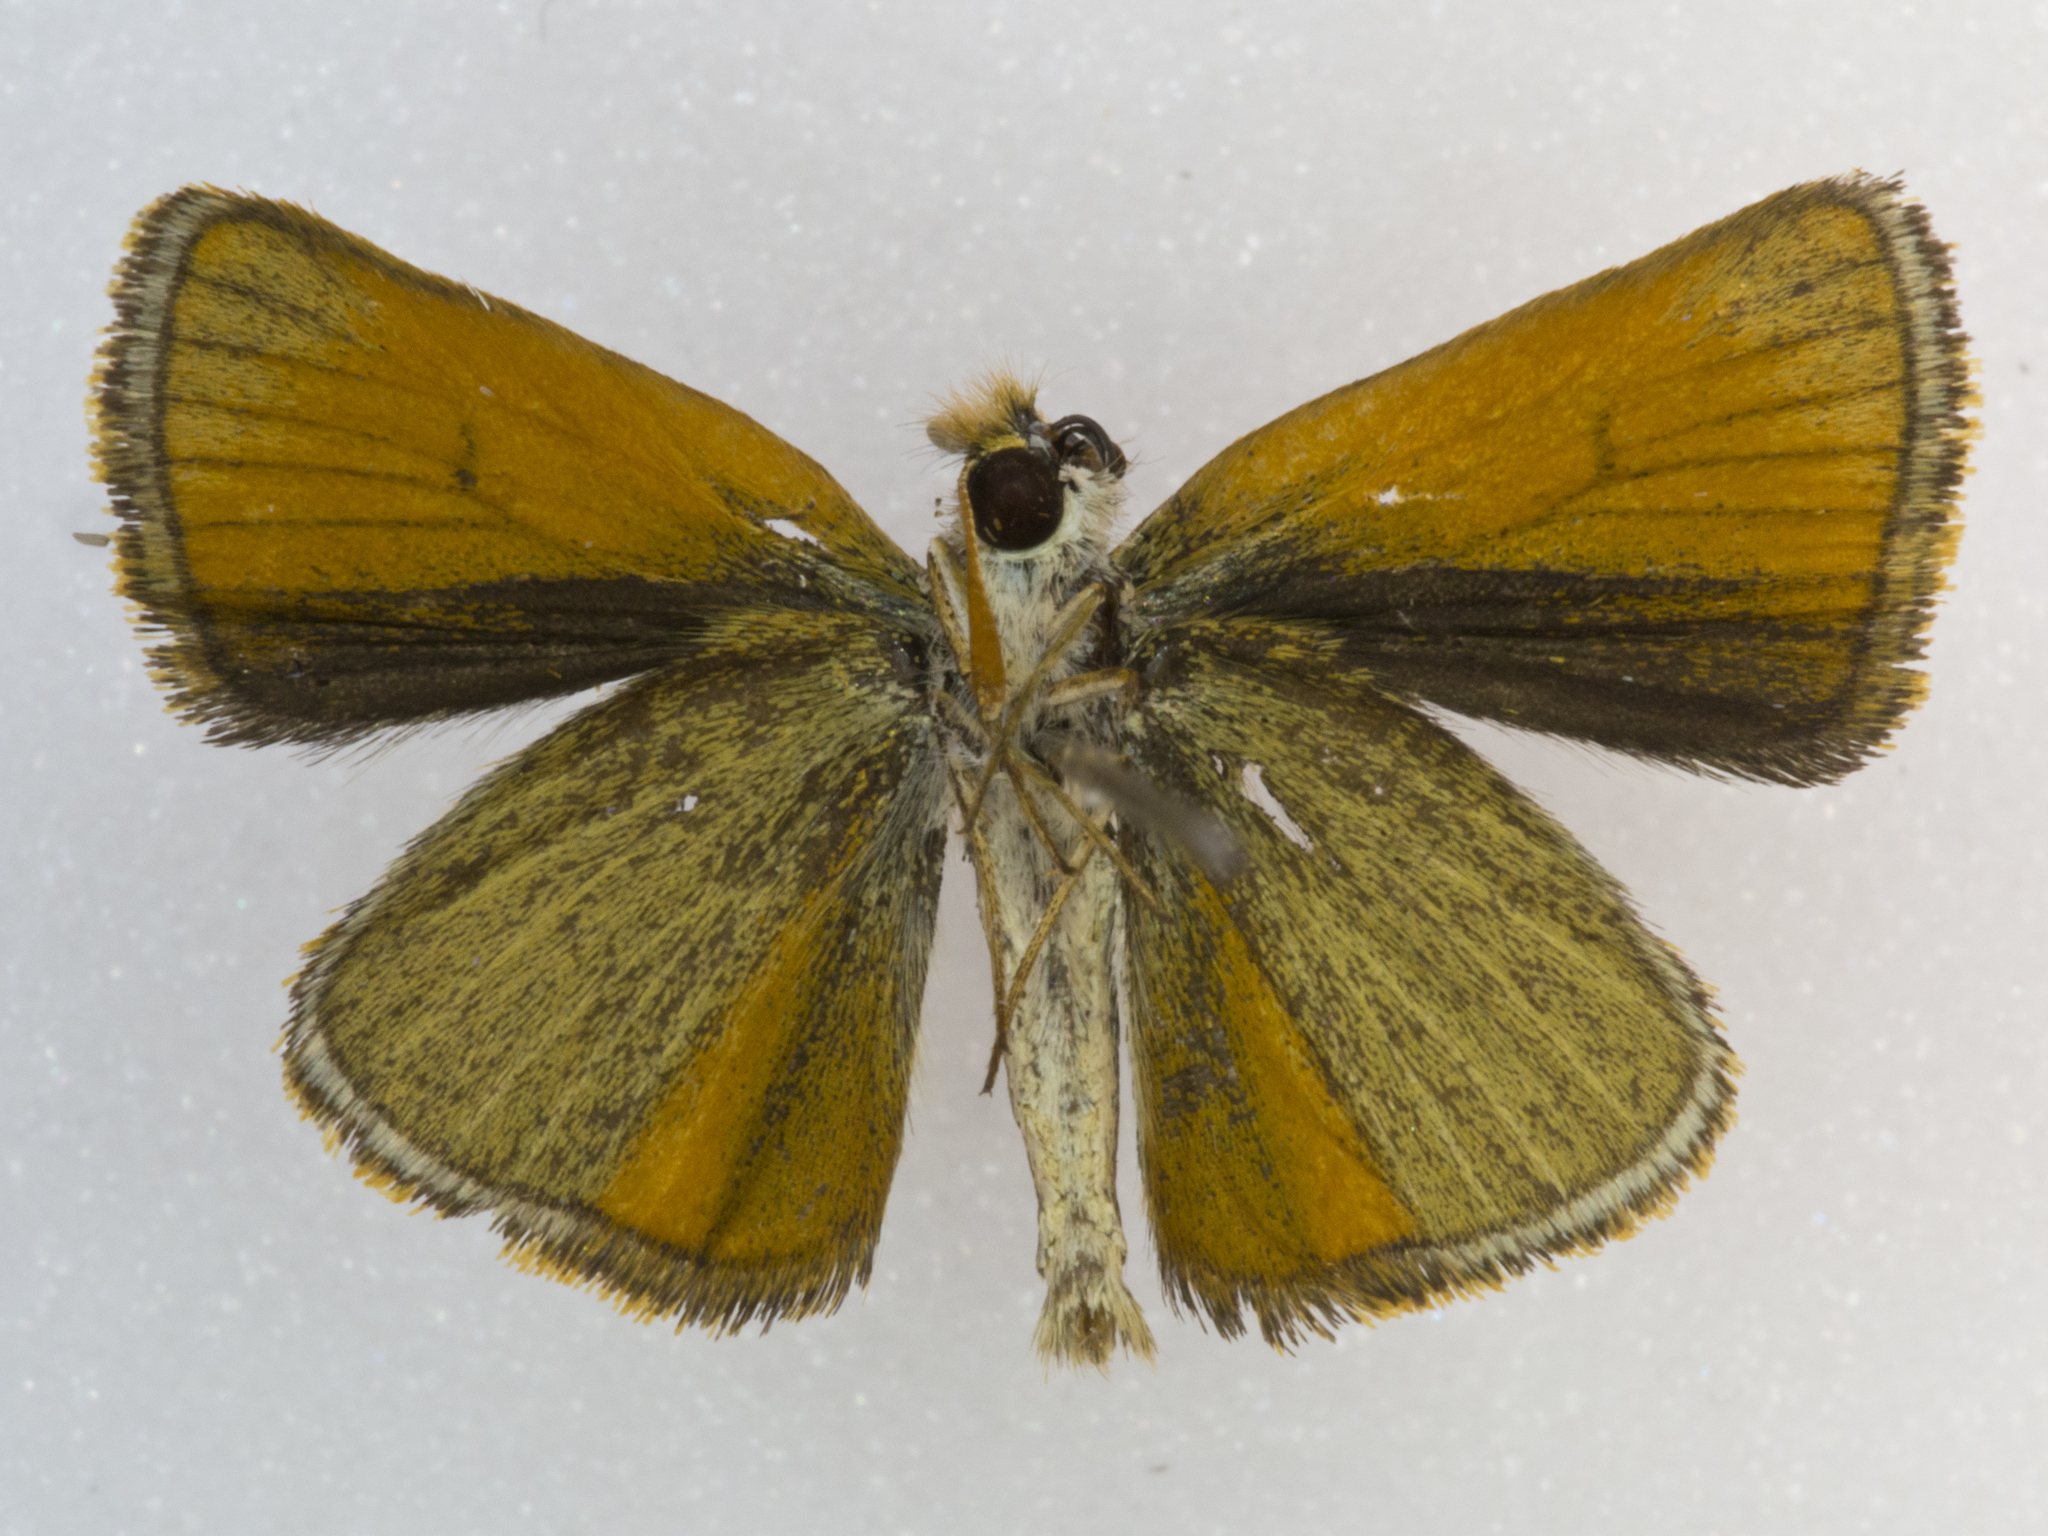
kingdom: Animalia
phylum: Arthropoda
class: Insecta
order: Lepidoptera
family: Hesperiidae
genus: Oarisma
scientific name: Oarisma garita
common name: Garita skipperling
